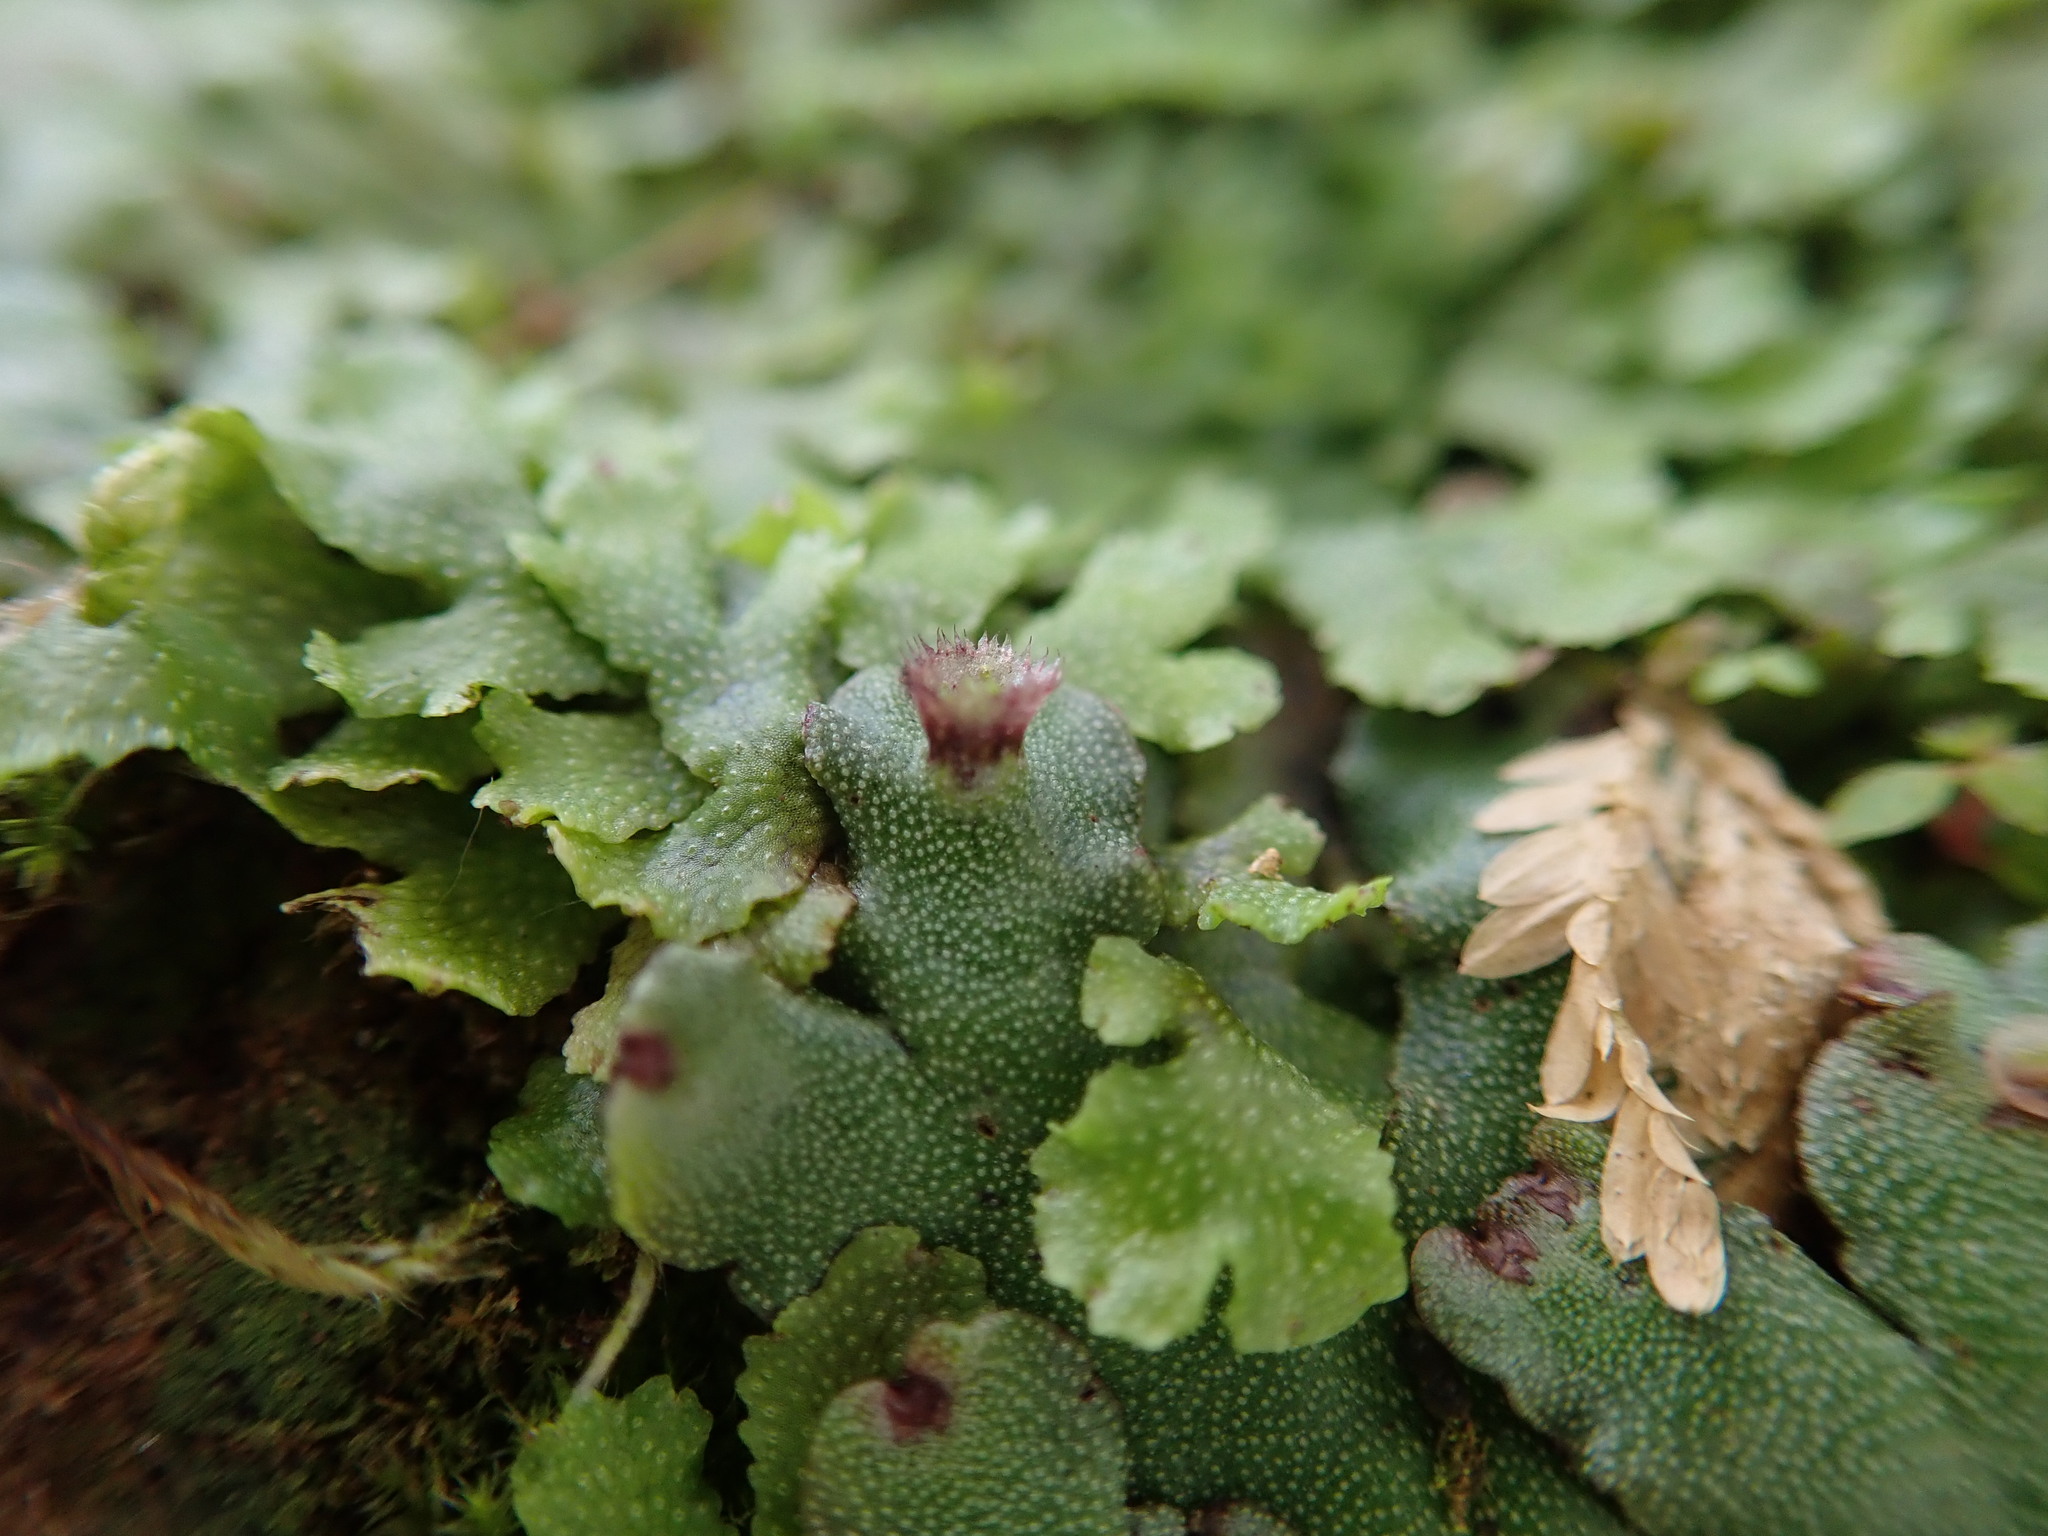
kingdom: Plantae
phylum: Marchantiophyta
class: Marchantiopsida
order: Marchantiales
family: Marchantiaceae
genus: Marchantia
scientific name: Marchantia paleacea
